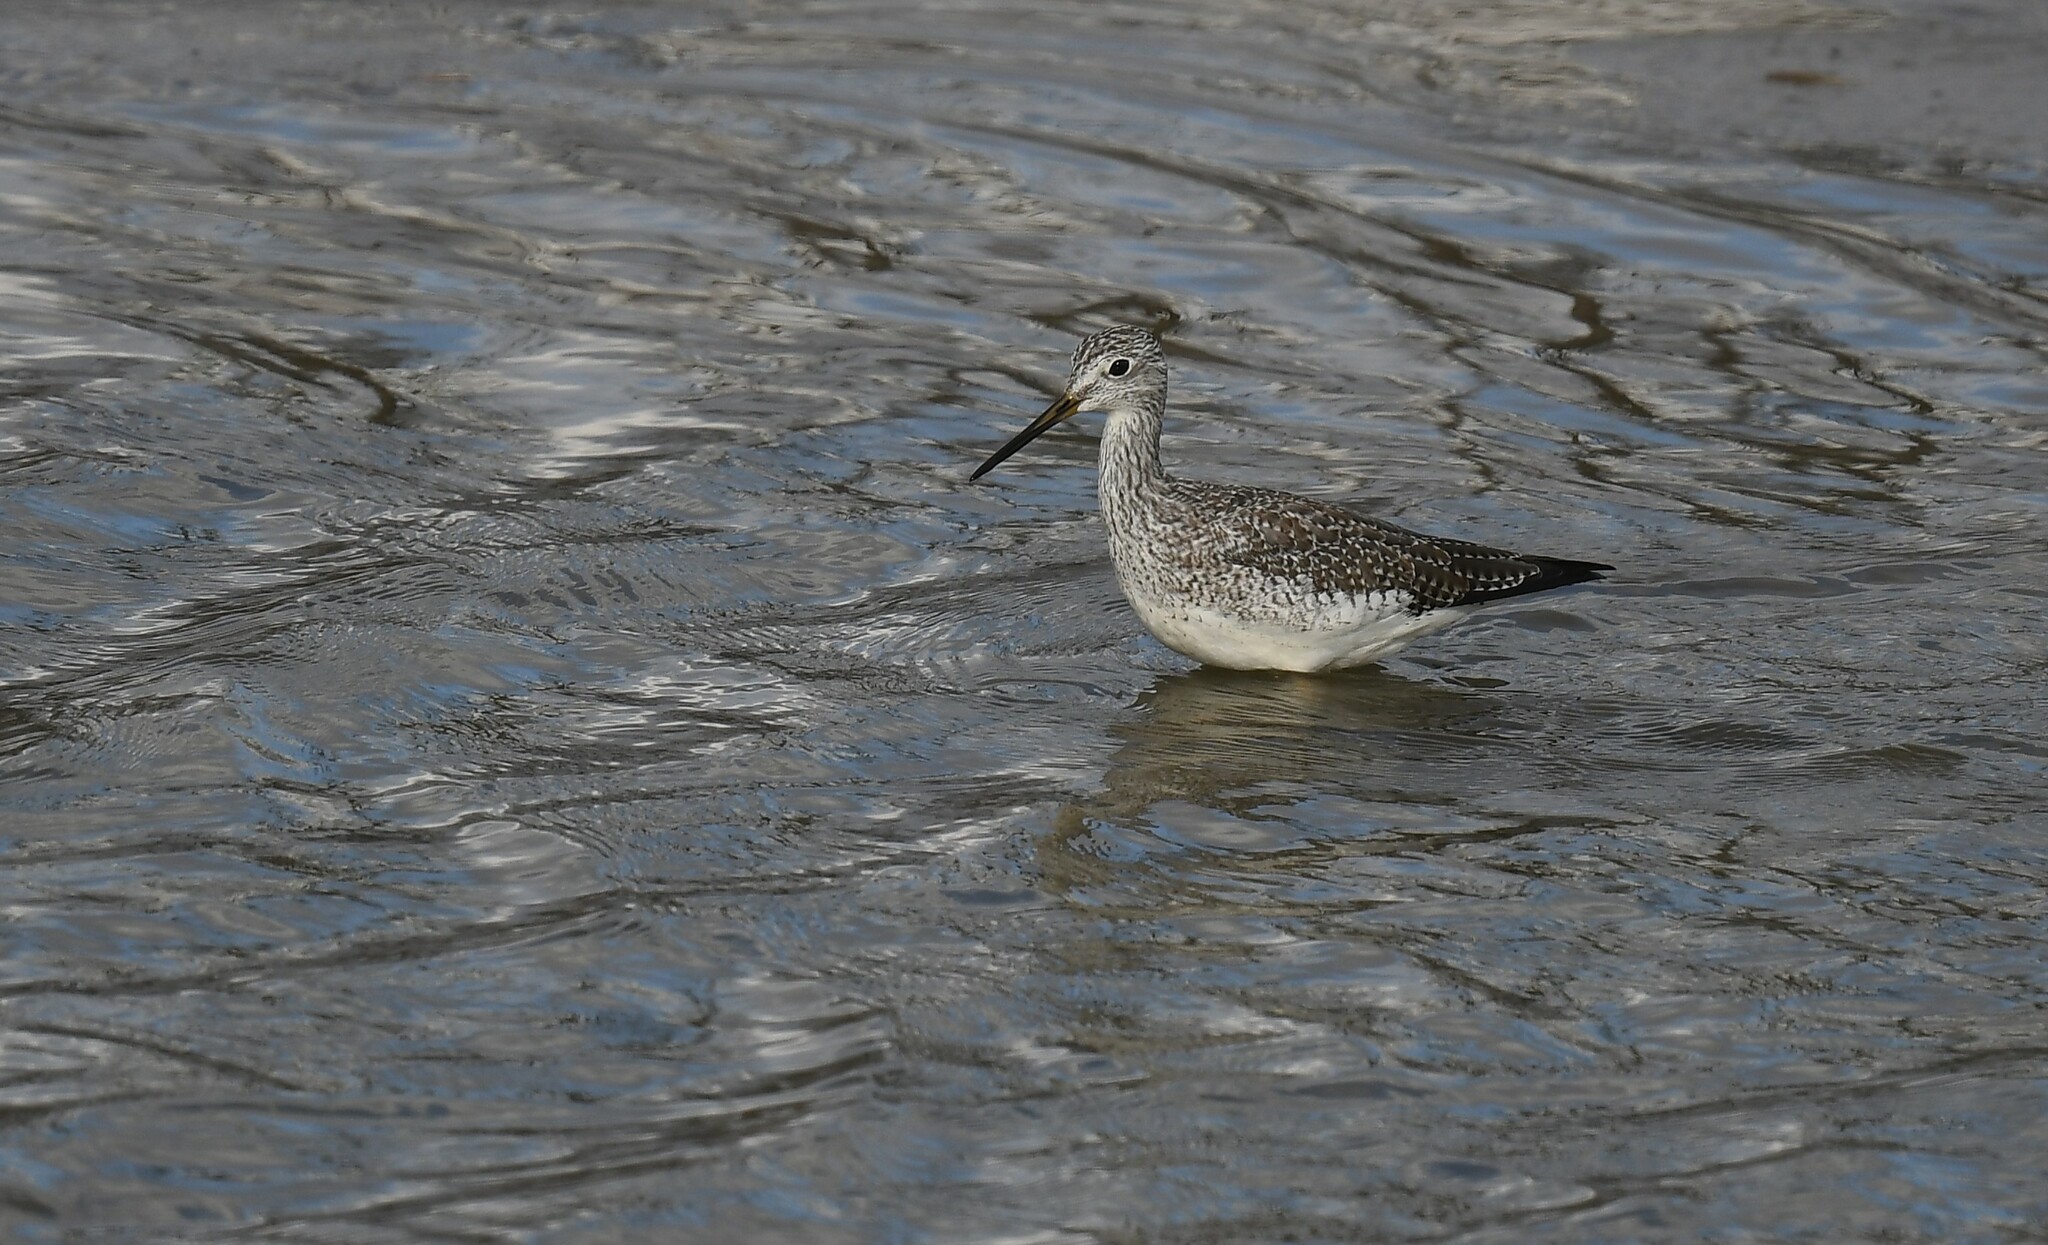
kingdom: Animalia
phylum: Chordata
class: Aves
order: Charadriiformes
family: Scolopacidae
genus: Tringa
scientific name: Tringa melanoleuca
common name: Greater yellowlegs
